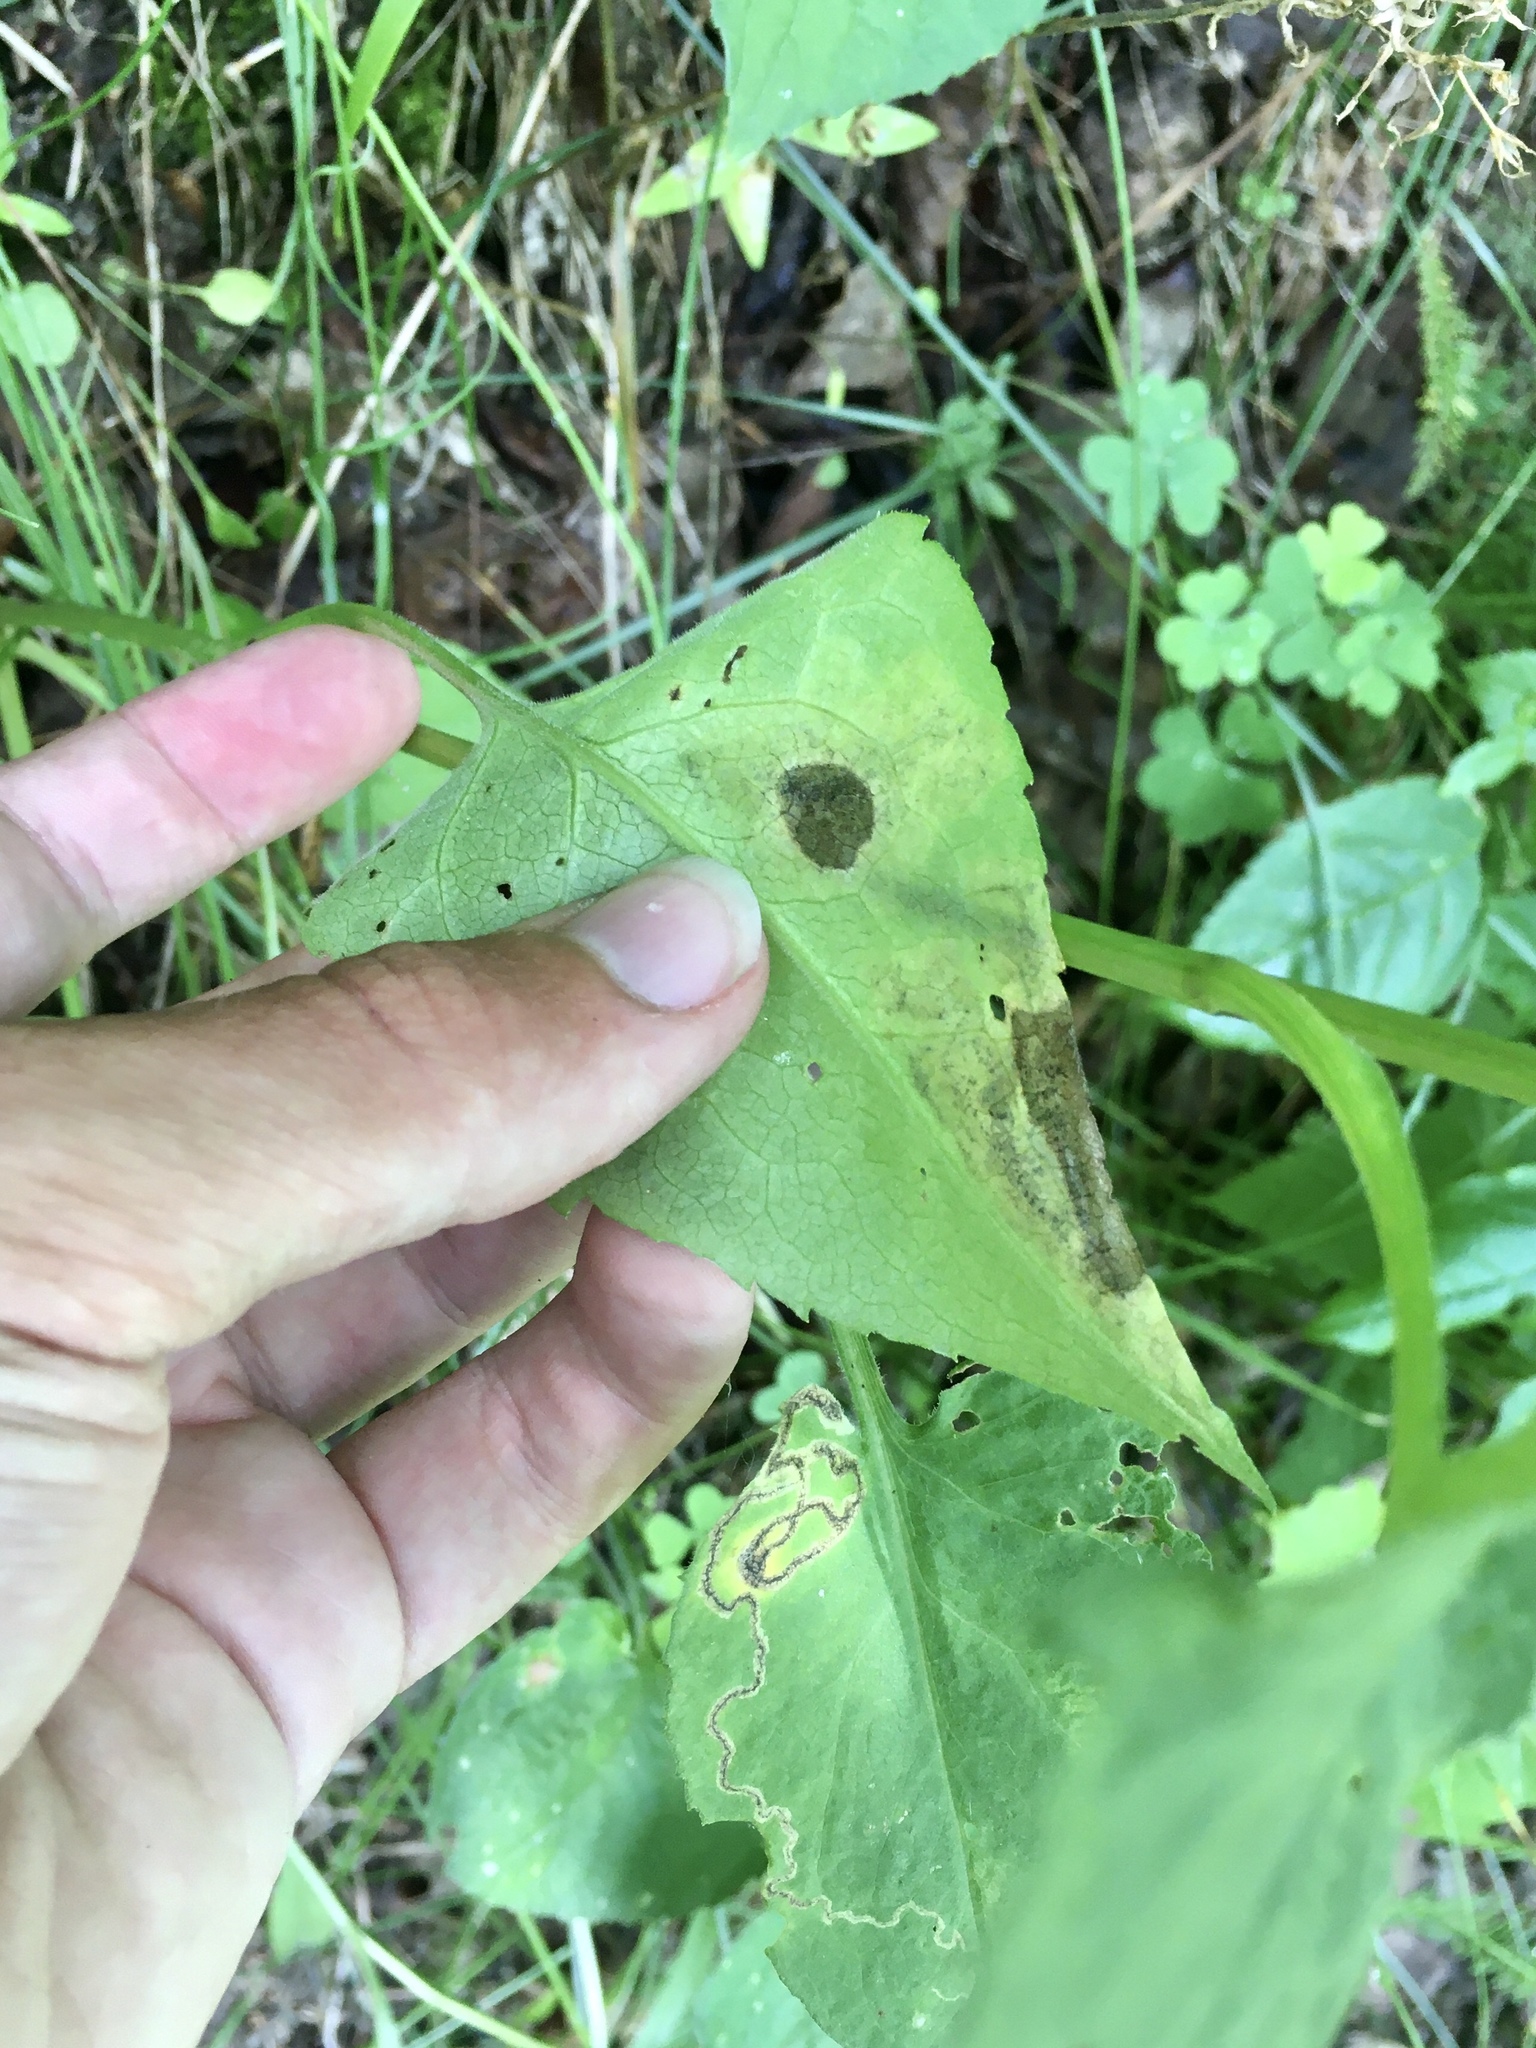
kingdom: Animalia
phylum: Arthropoda
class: Insecta
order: Lepidoptera
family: Gracillariidae
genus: Acrocercops
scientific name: Acrocercops astericola
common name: Aster tentiform blotchminer
